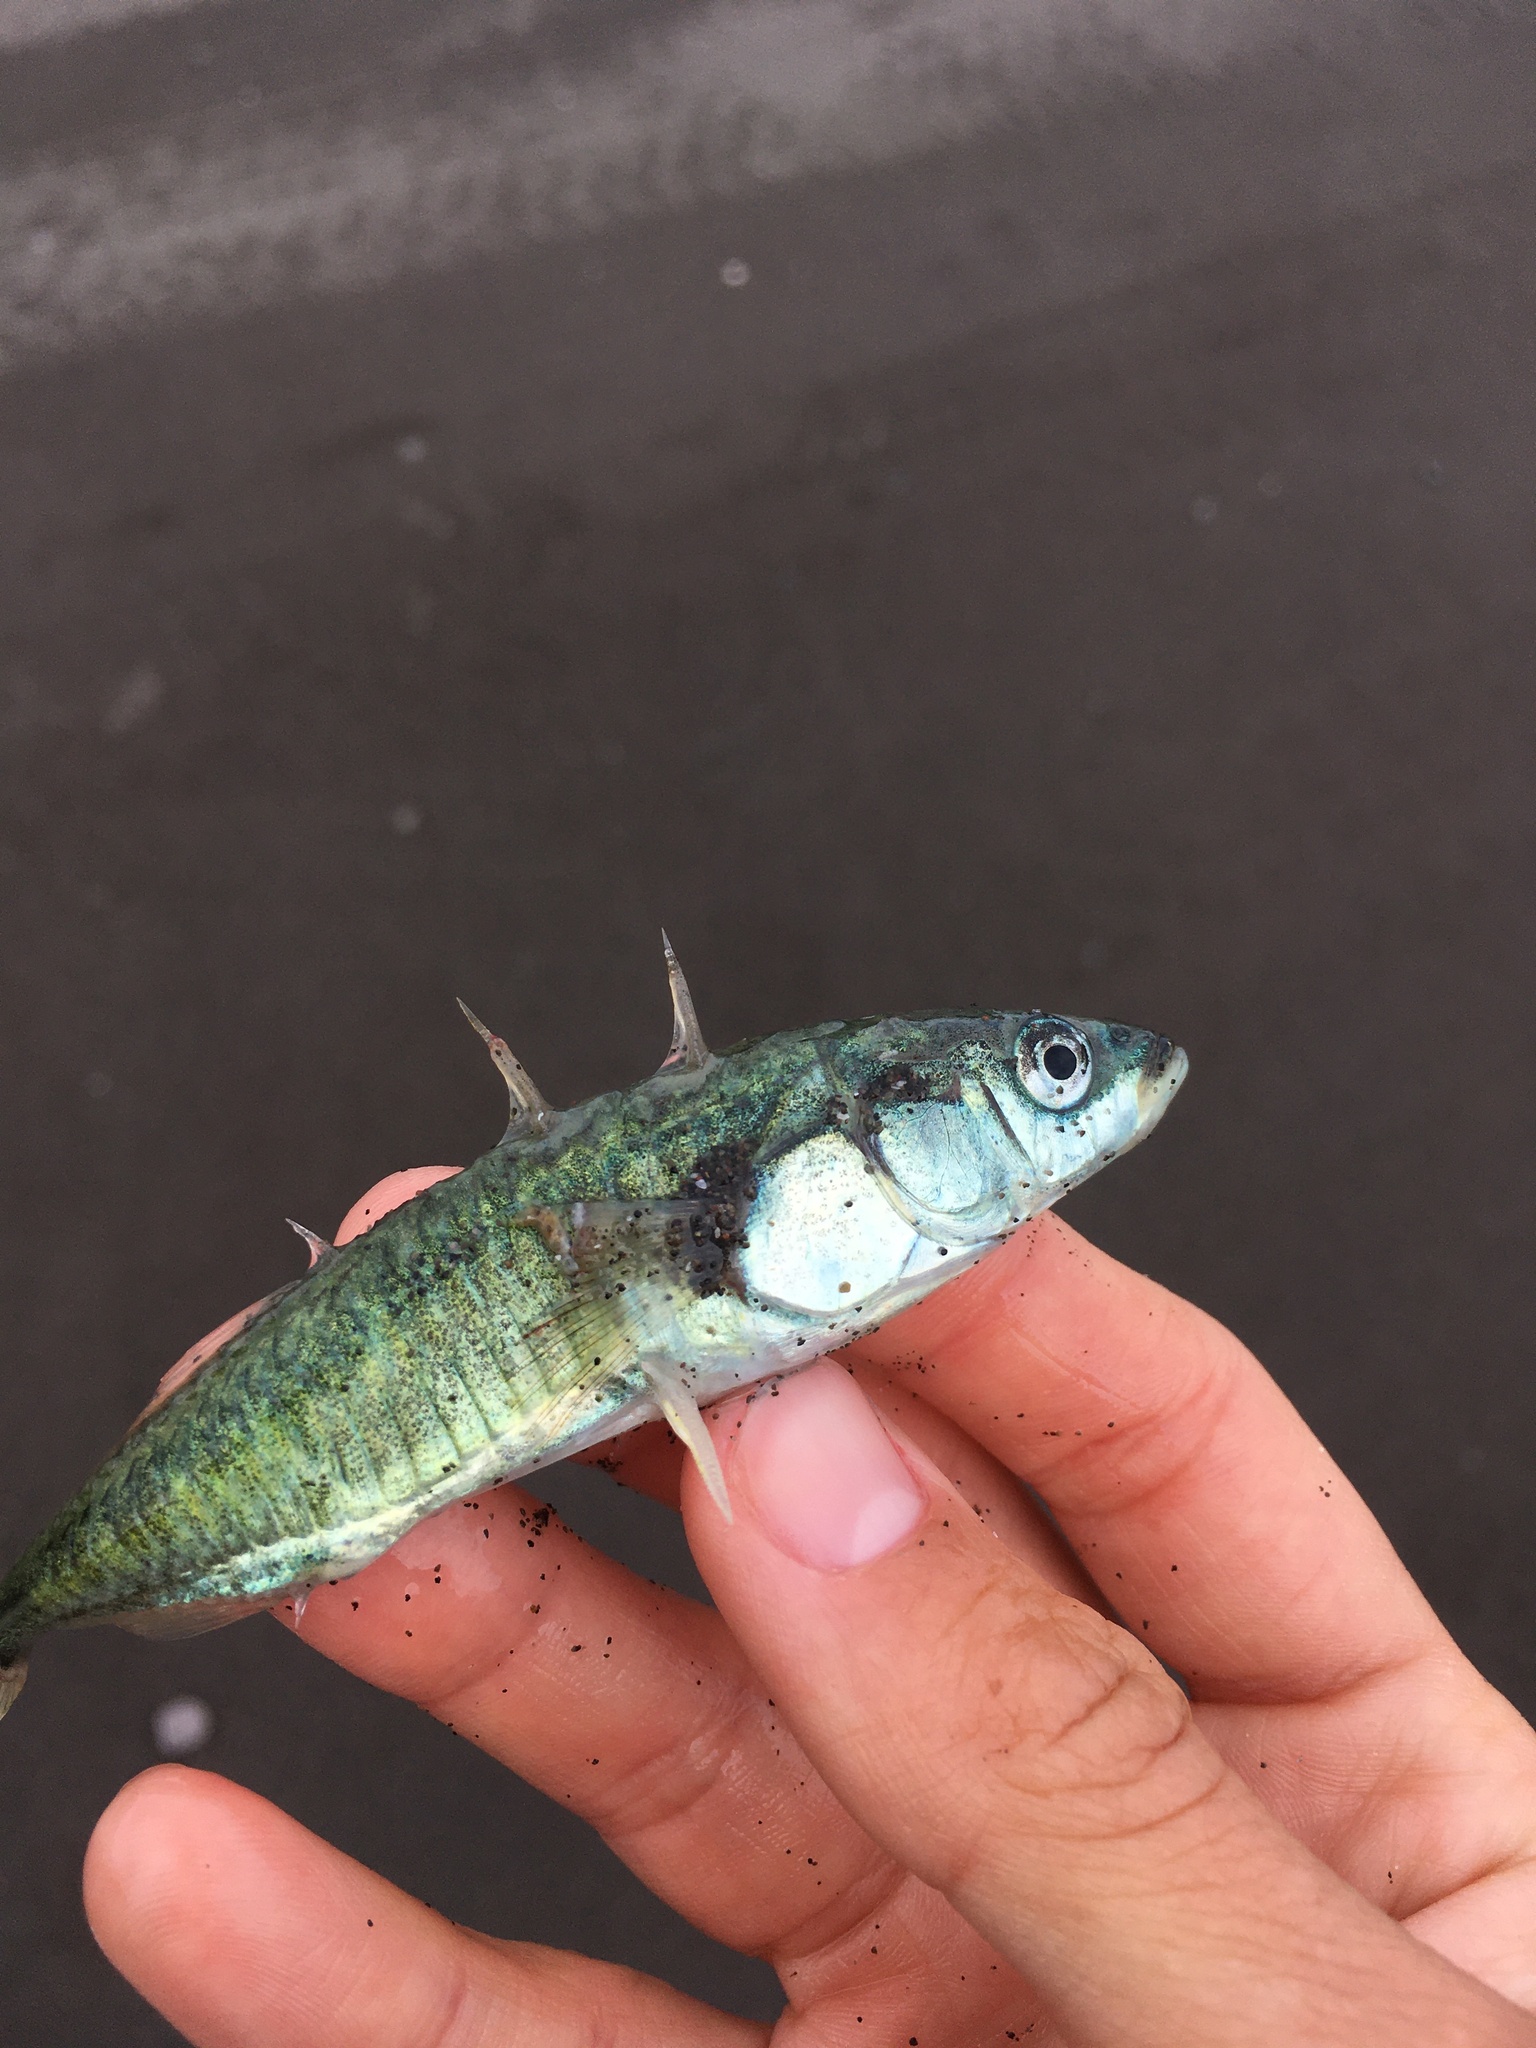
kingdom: Animalia
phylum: Chordata
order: Gasterosteiformes
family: Gasterosteidae
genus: Gasterosteus
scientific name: Gasterosteus aculeatus
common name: Three-spined stickleback
